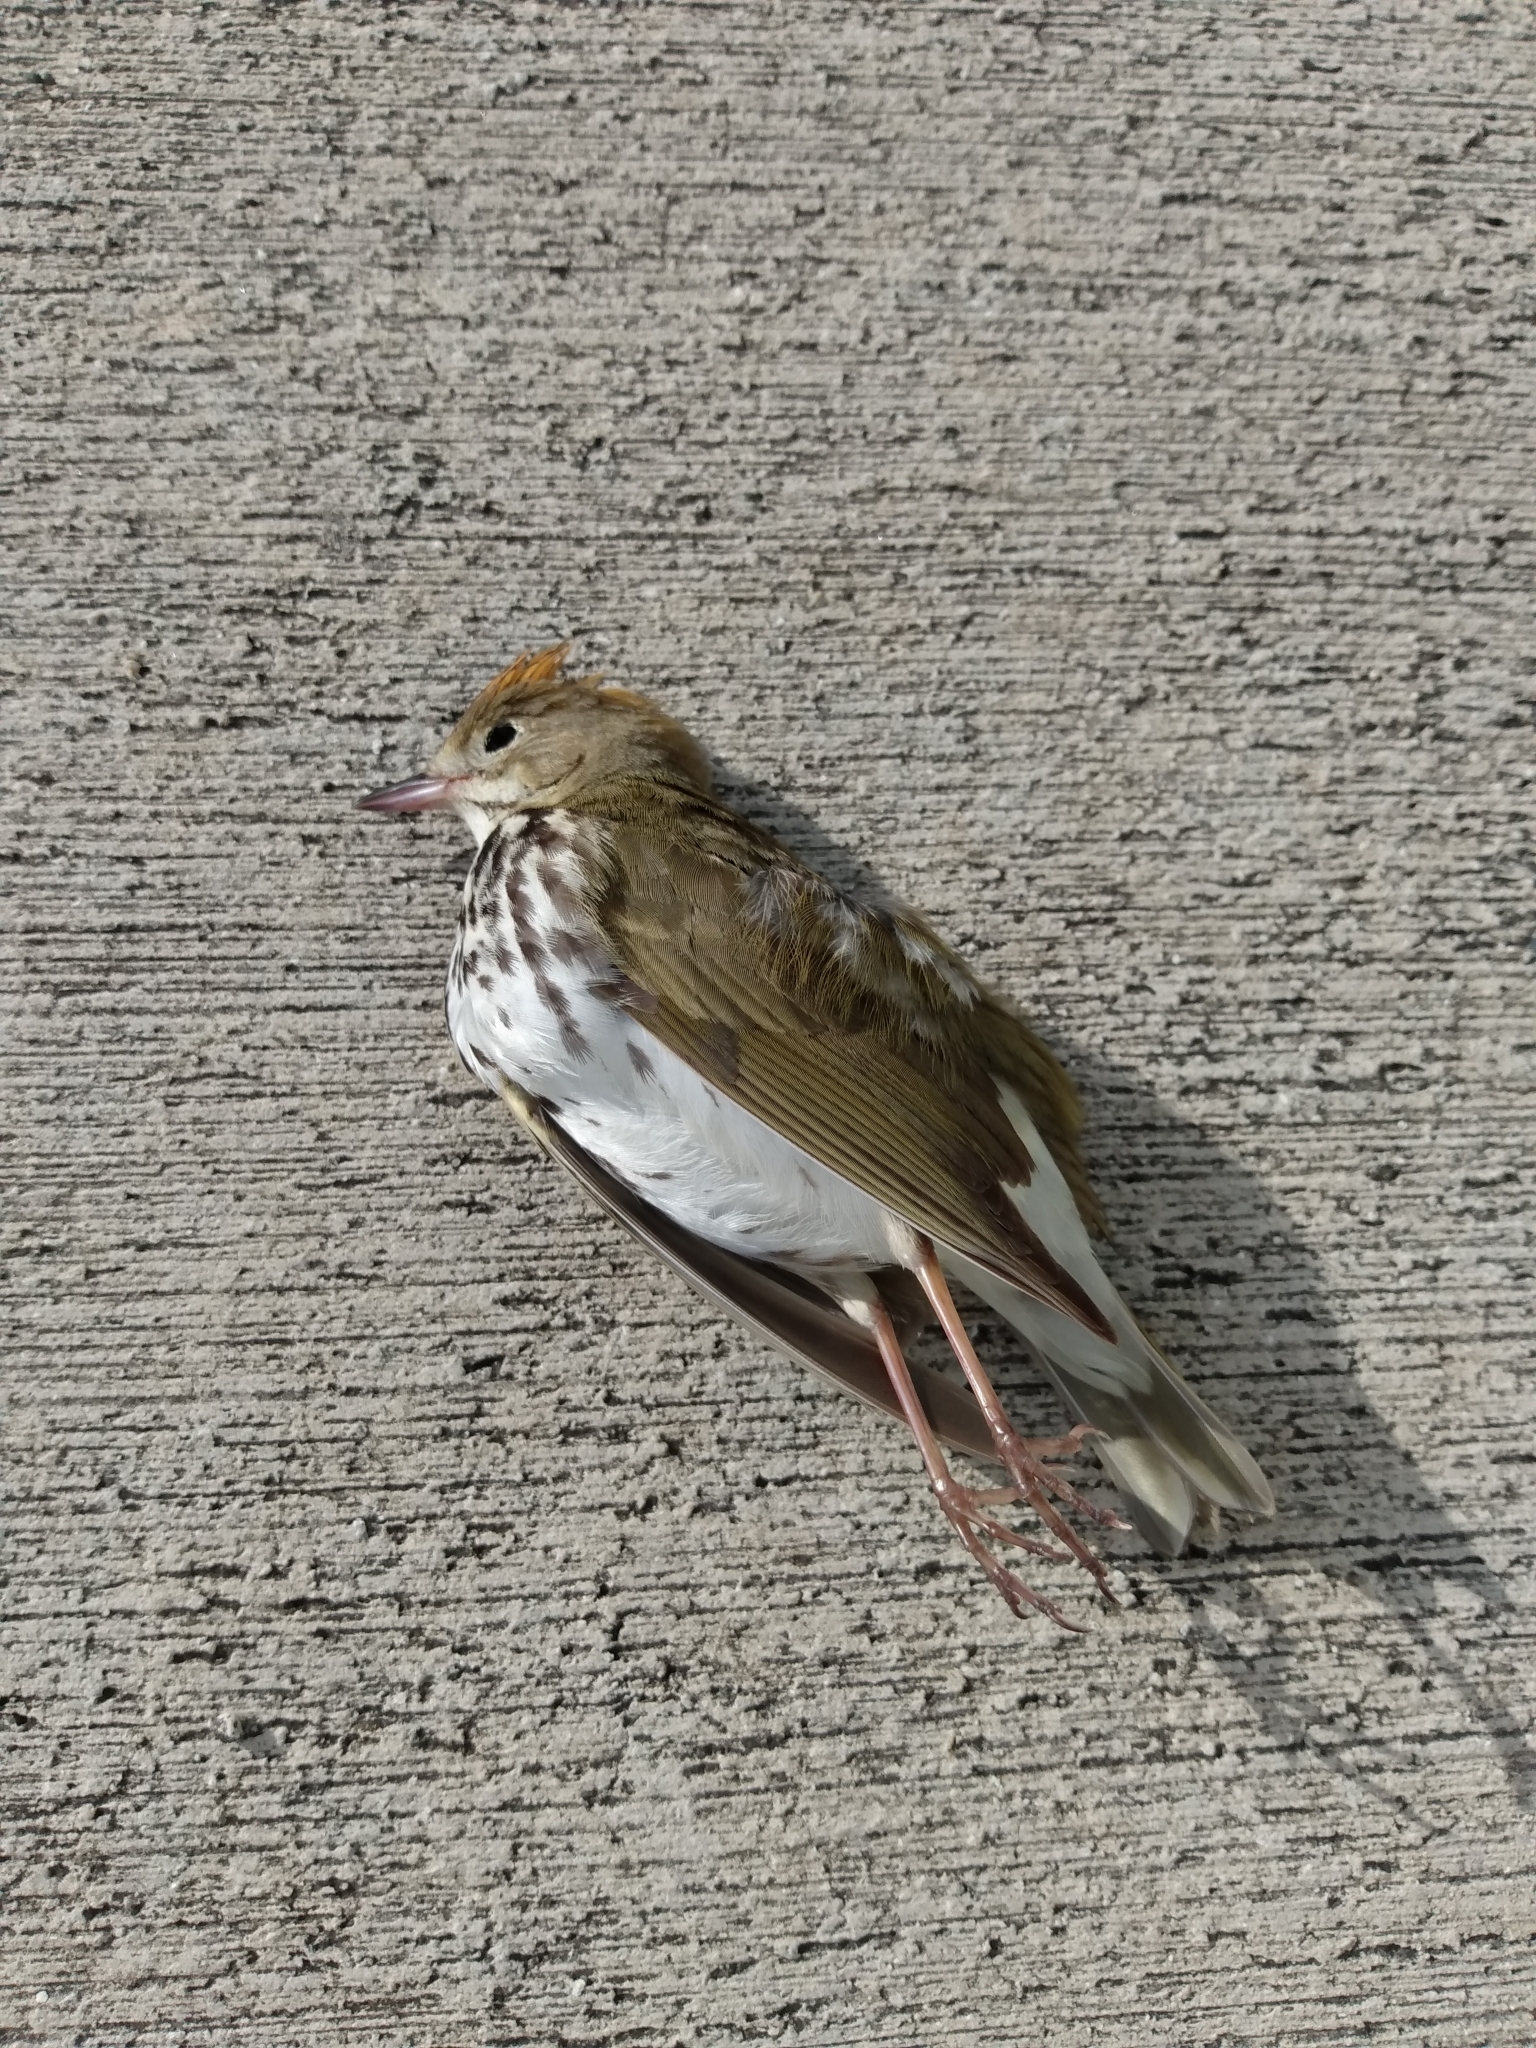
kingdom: Animalia
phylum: Chordata
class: Aves
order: Passeriformes
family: Parulidae
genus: Seiurus
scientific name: Seiurus aurocapilla
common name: Ovenbird
